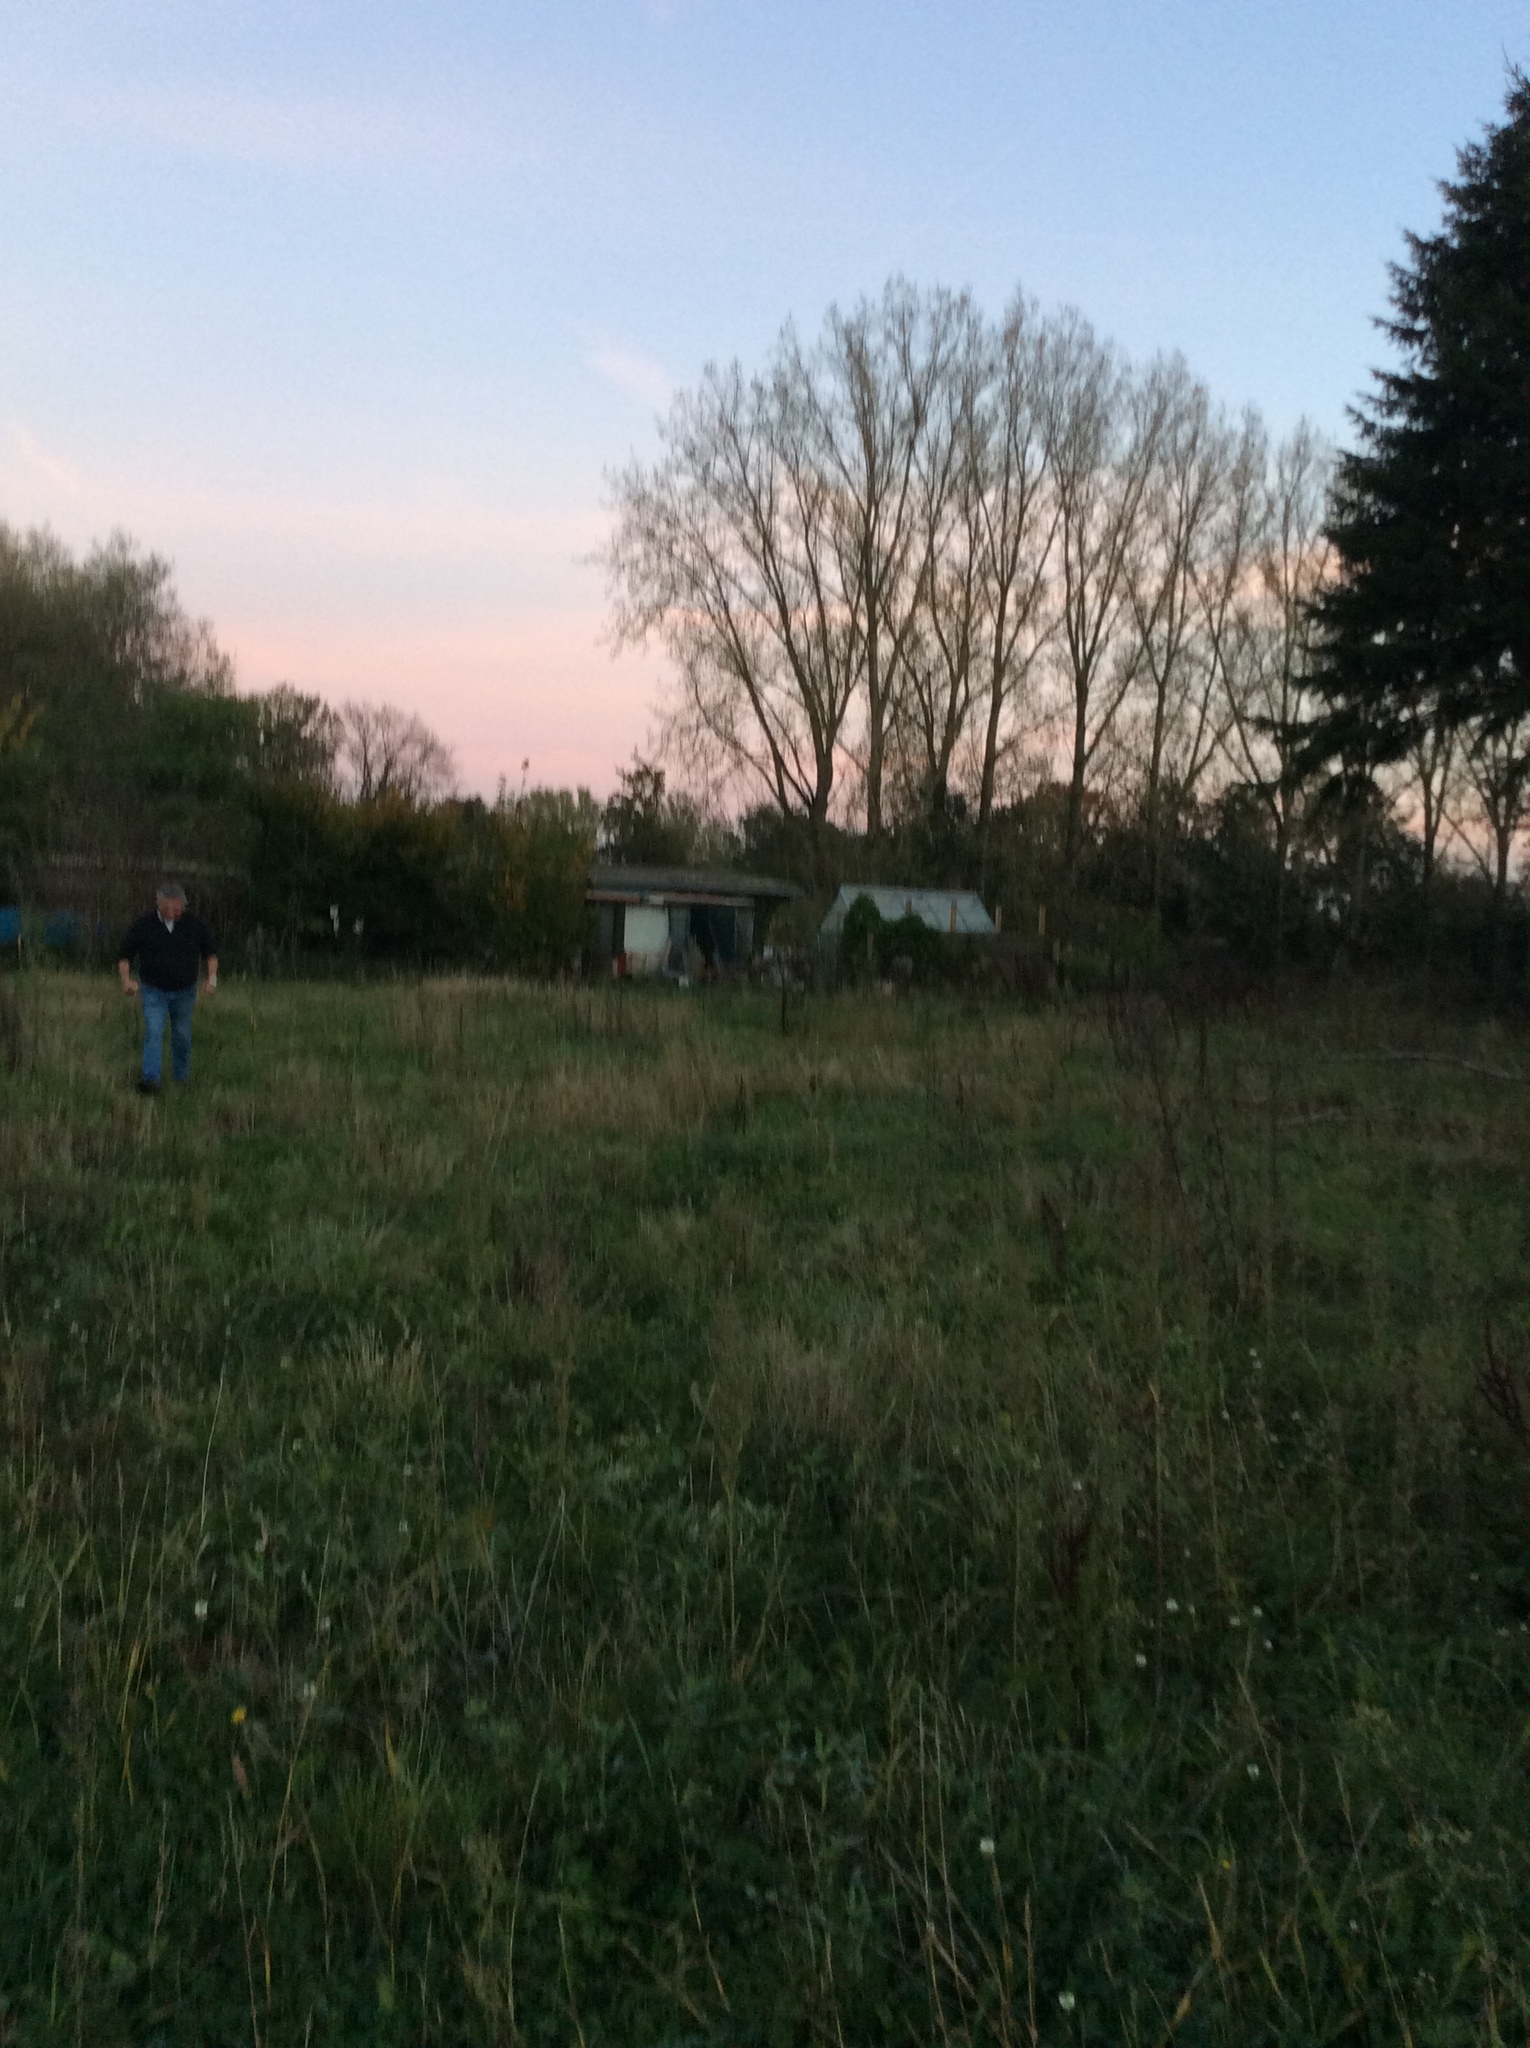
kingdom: Animalia
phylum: Arthropoda
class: Insecta
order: Hymenoptera
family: Vespidae
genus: Vespa
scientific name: Vespa velutina
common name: Asian hornet
